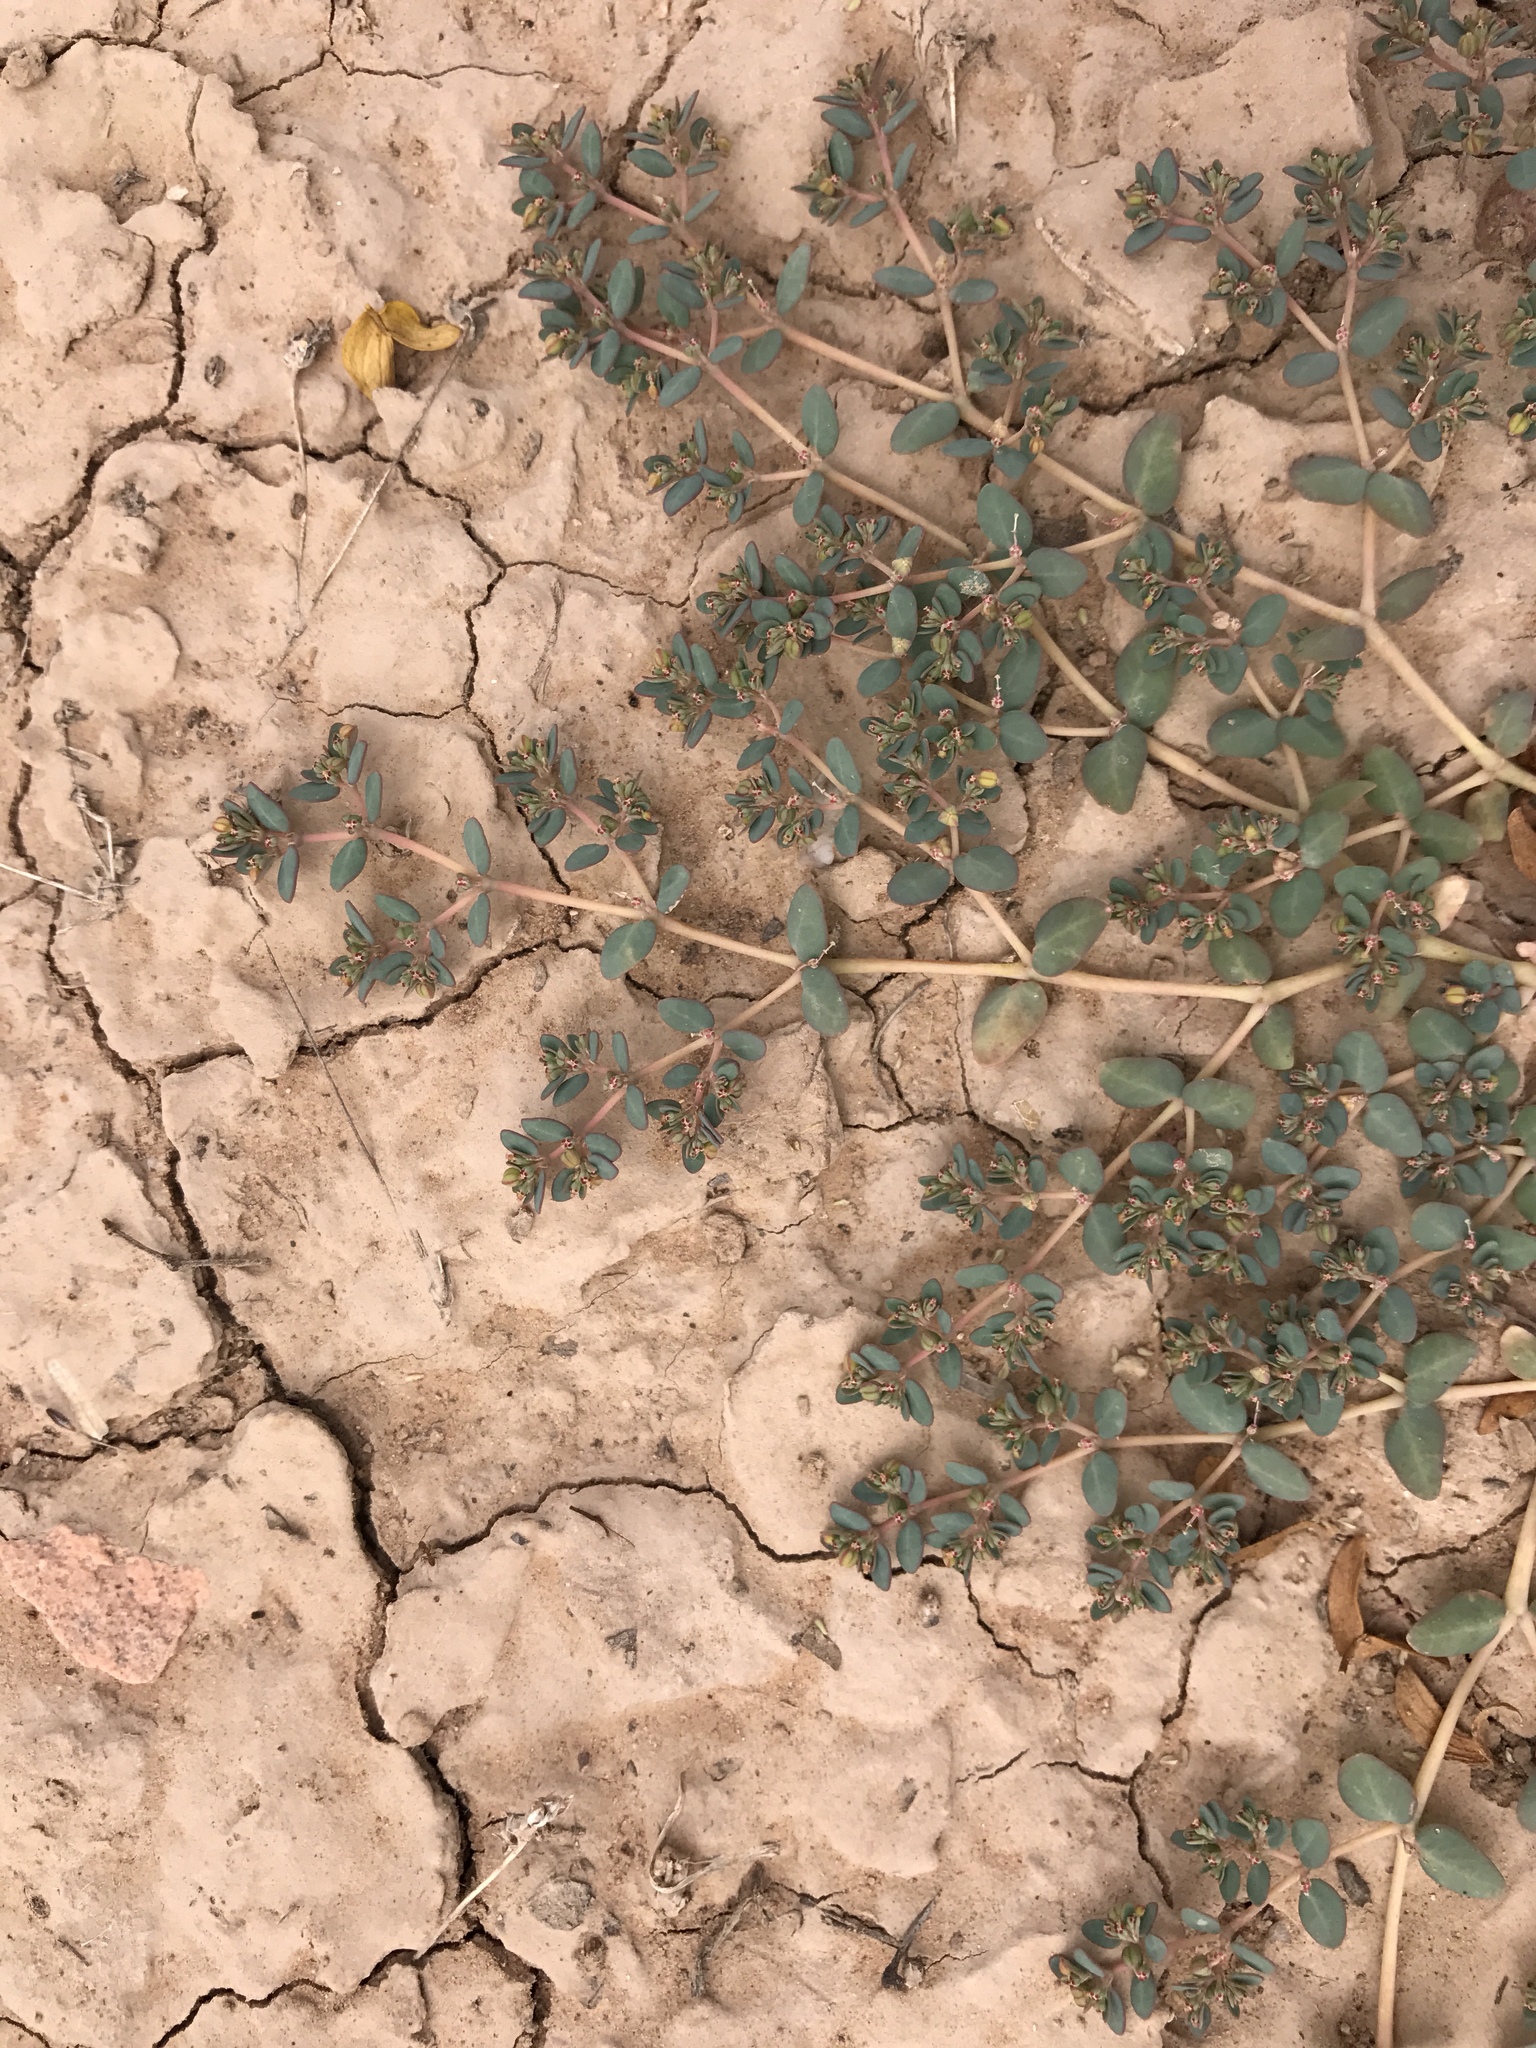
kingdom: Plantae
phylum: Tracheophyta
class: Magnoliopsida
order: Malpighiales
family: Euphorbiaceae
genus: Euphorbia
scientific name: Euphorbia micromera
